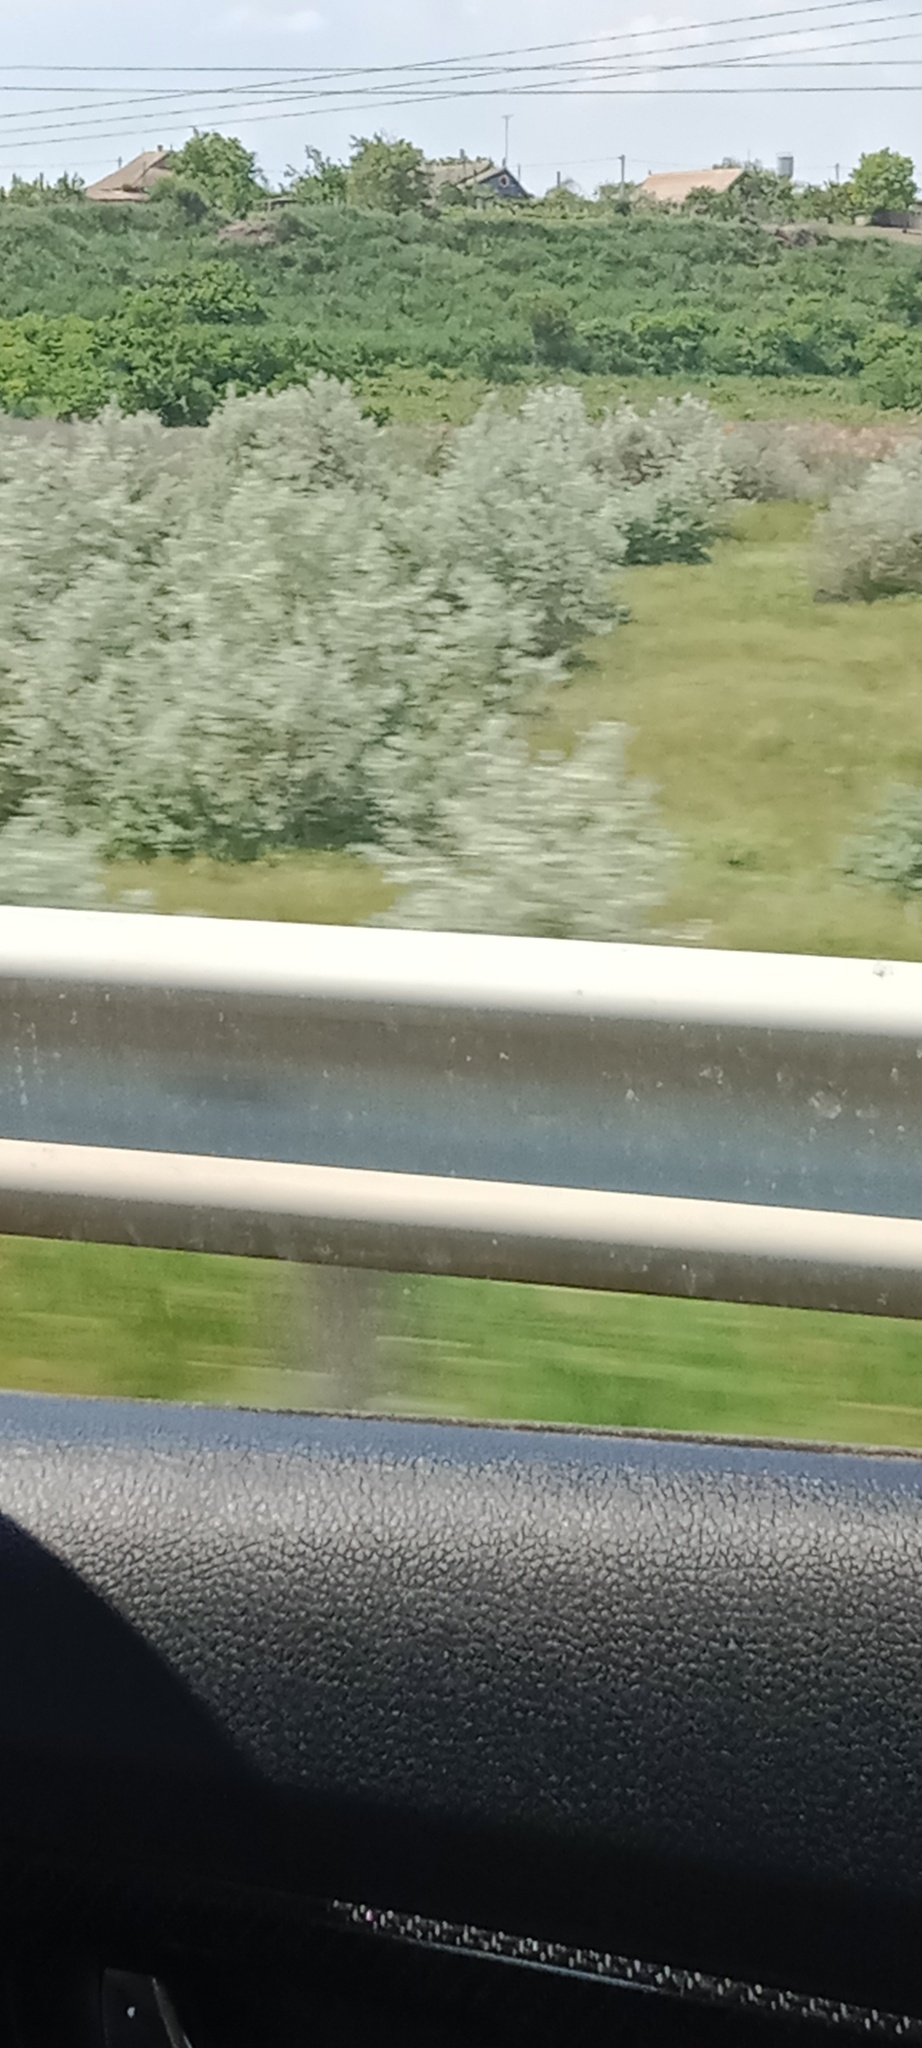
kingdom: Plantae
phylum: Tracheophyta
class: Magnoliopsida
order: Rosales
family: Elaeagnaceae
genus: Elaeagnus
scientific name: Elaeagnus angustifolia
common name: Russian olive
